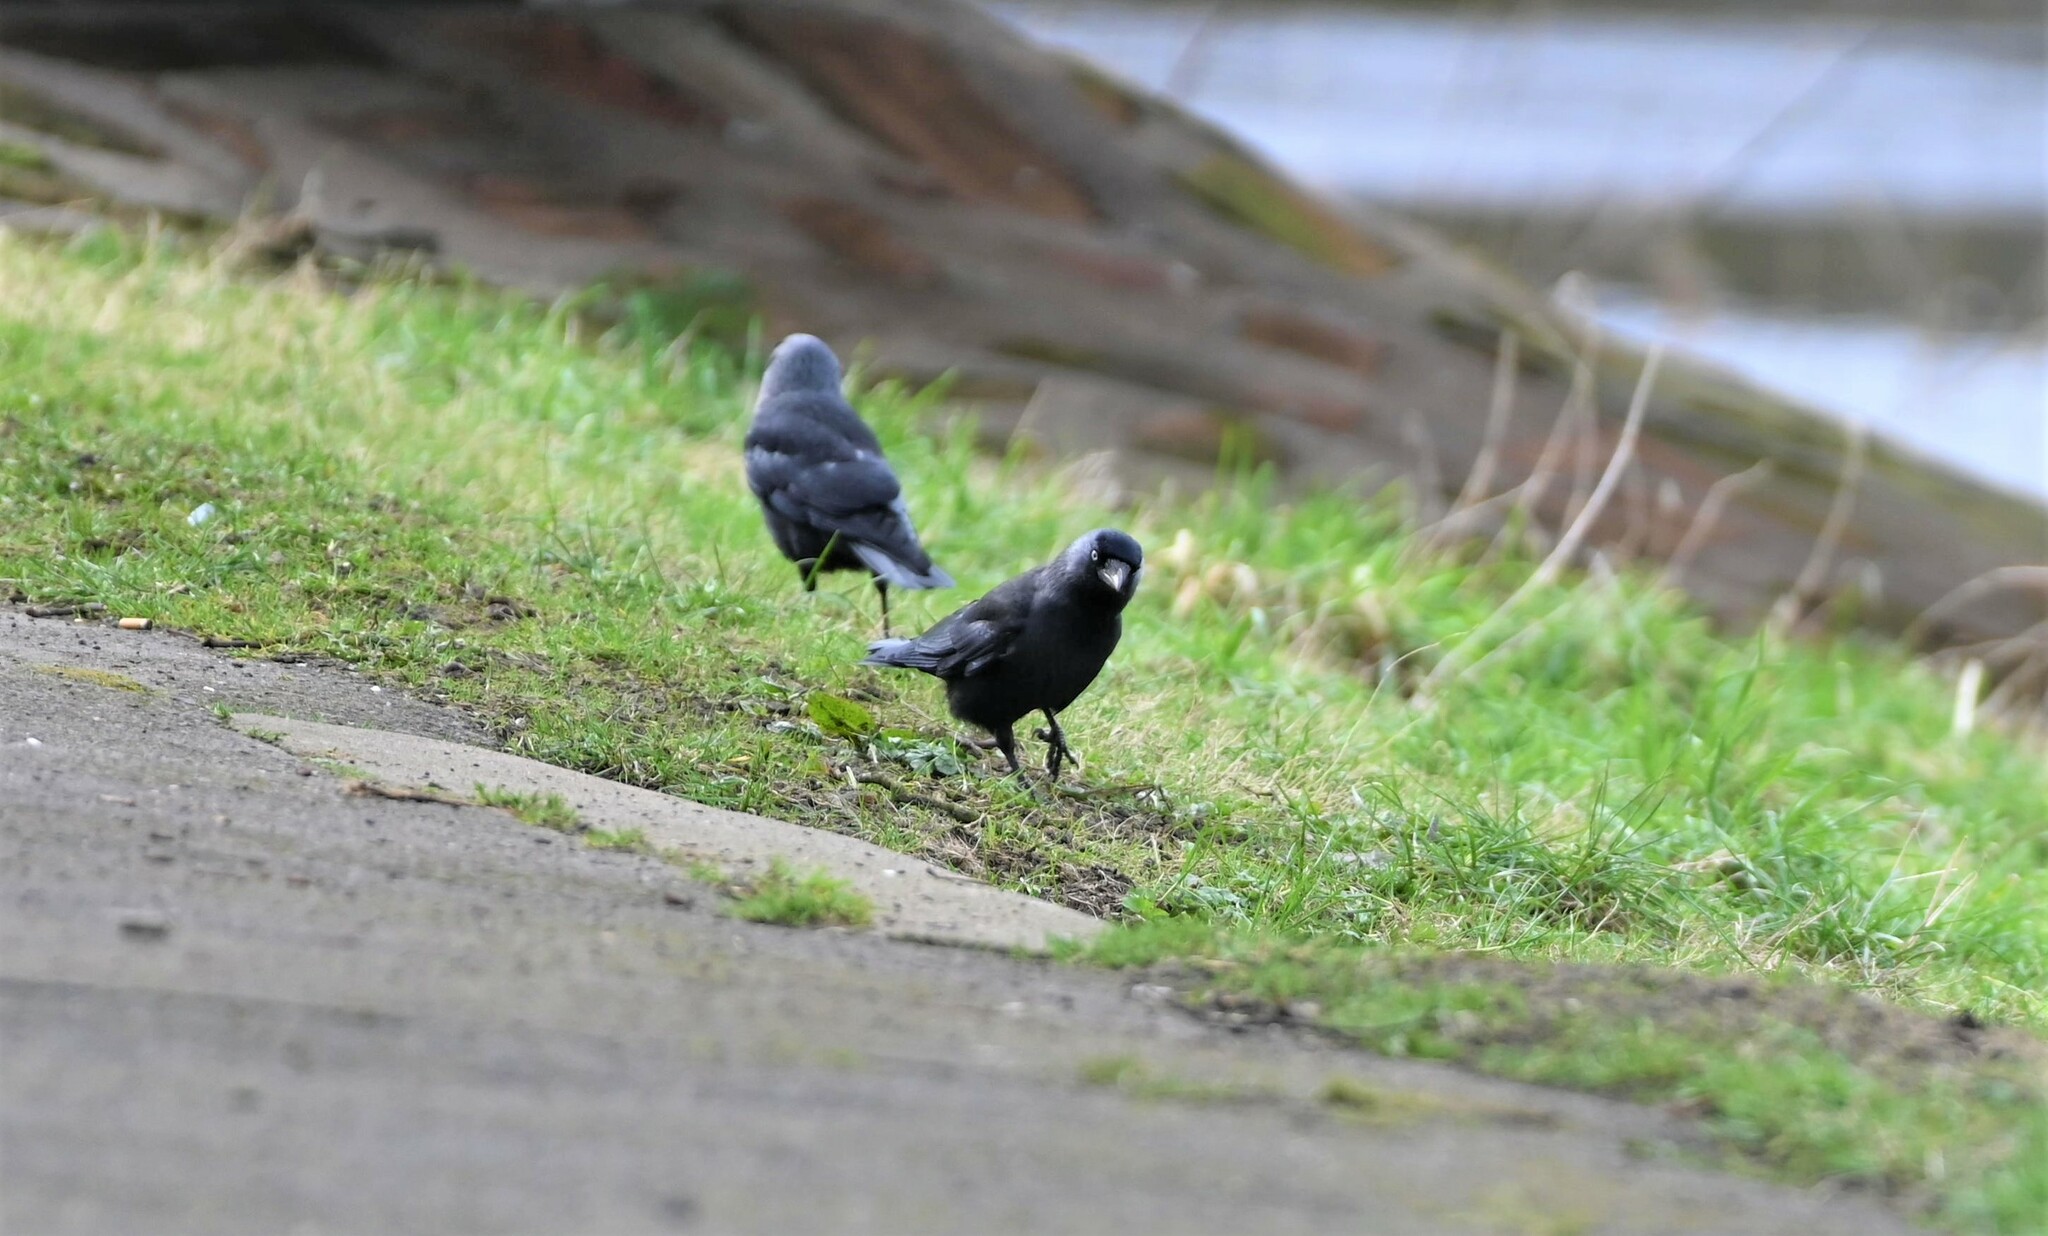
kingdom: Animalia
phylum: Chordata
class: Aves
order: Passeriformes
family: Corvidae
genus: Coloeus
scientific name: Coloeus monedula
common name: Western jackdaw
